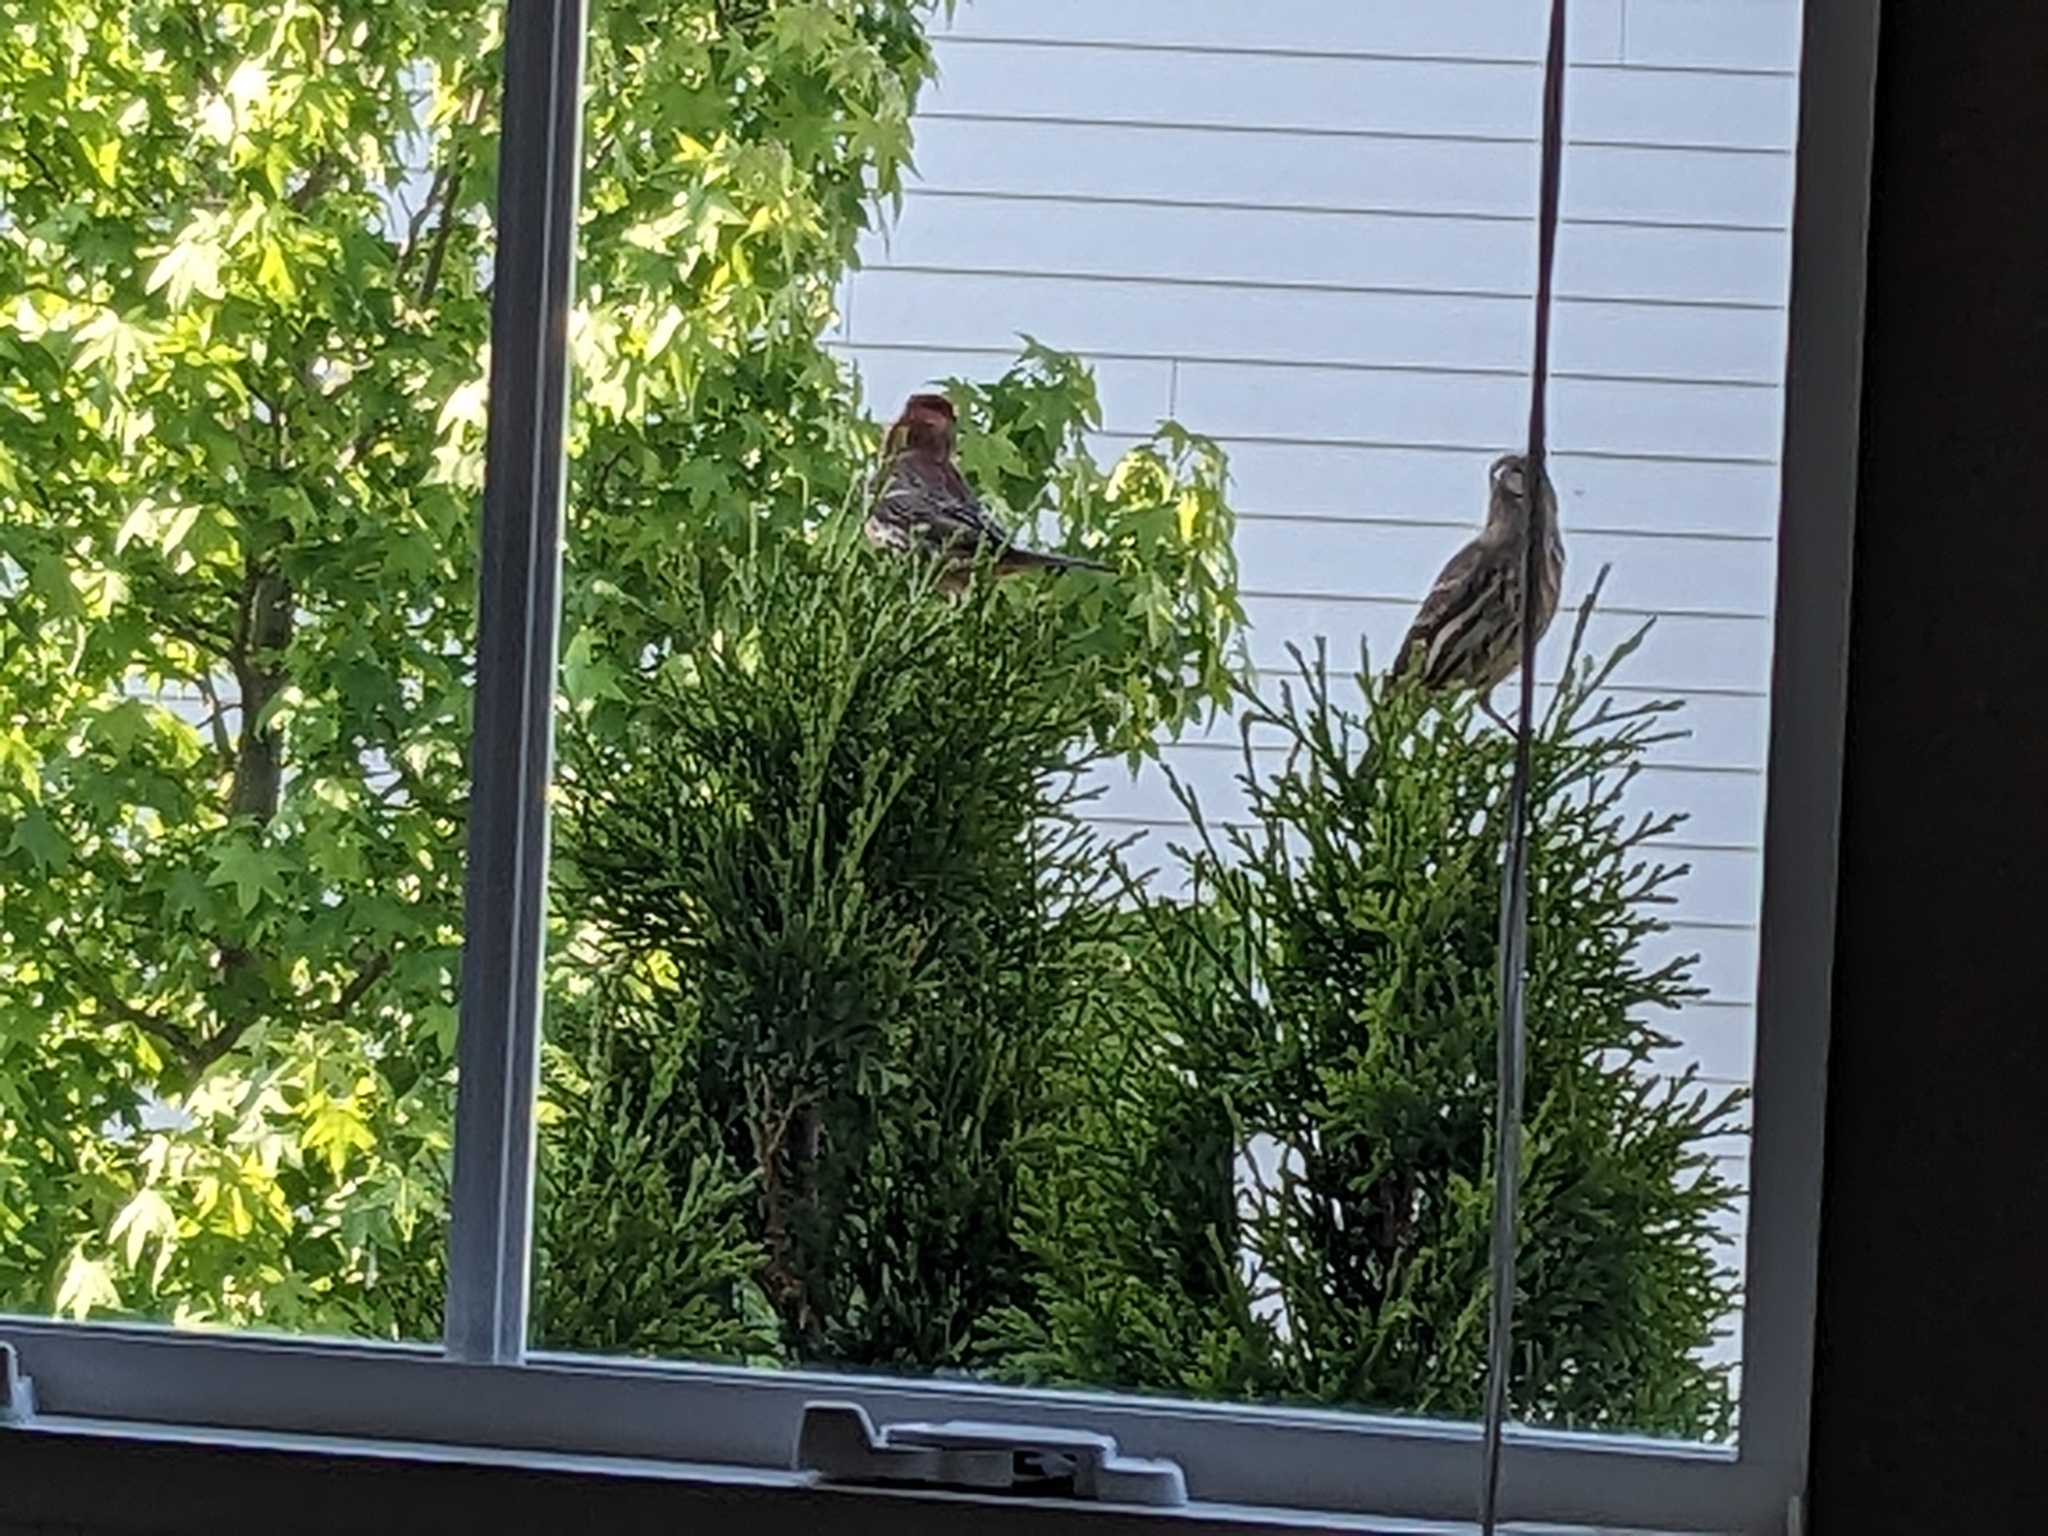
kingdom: Animalia
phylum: Chordata
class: Aves
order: Passeriformes
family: Fringillidae
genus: Haemorhous
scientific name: Haemorhous mexicanus
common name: House finch
